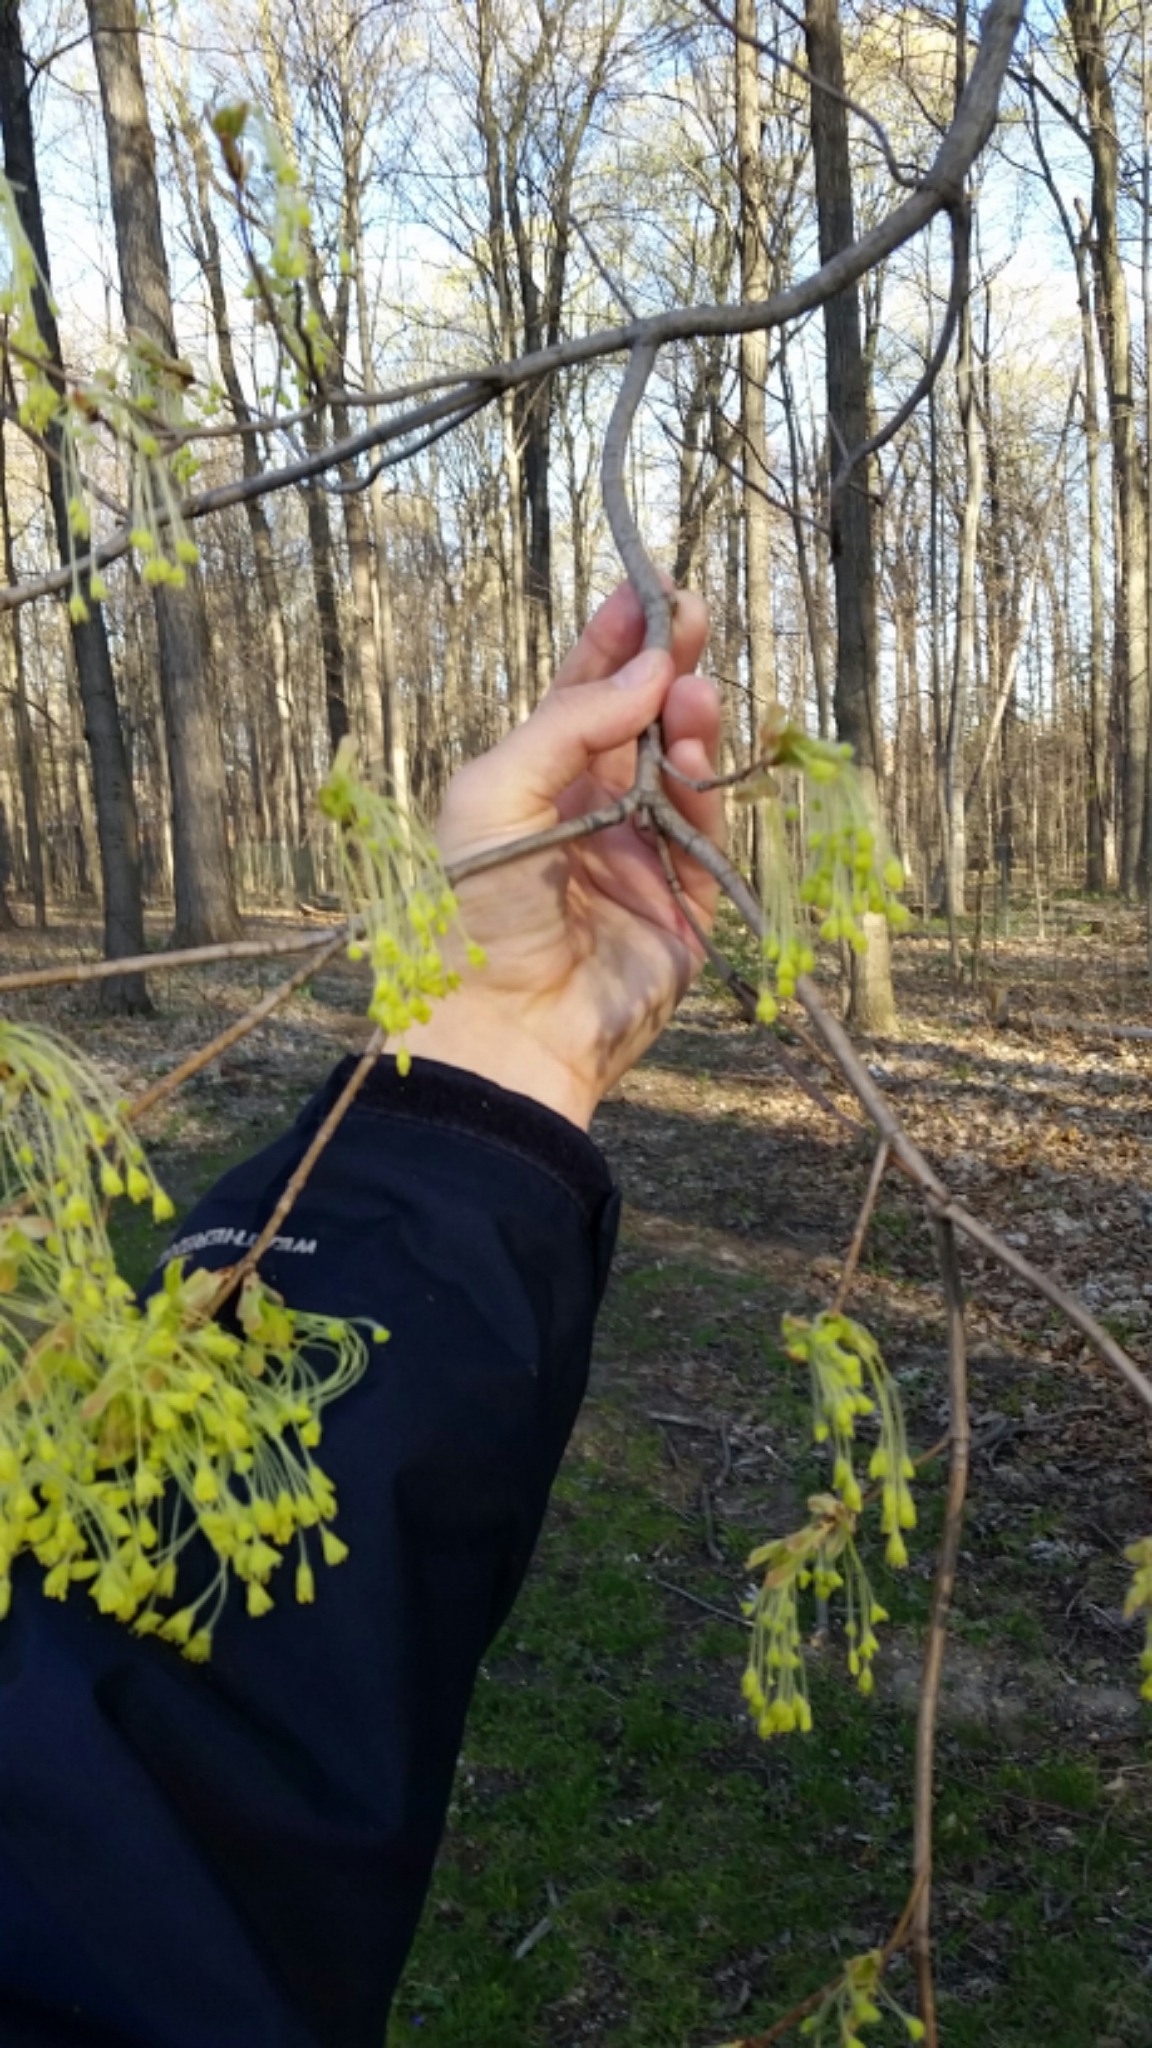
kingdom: Plantae
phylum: Tracheophyta
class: Magnoliopsida
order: Sapindales
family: Sapindaceae
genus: Acer
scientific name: Acer saccharum
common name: Sugar maple
